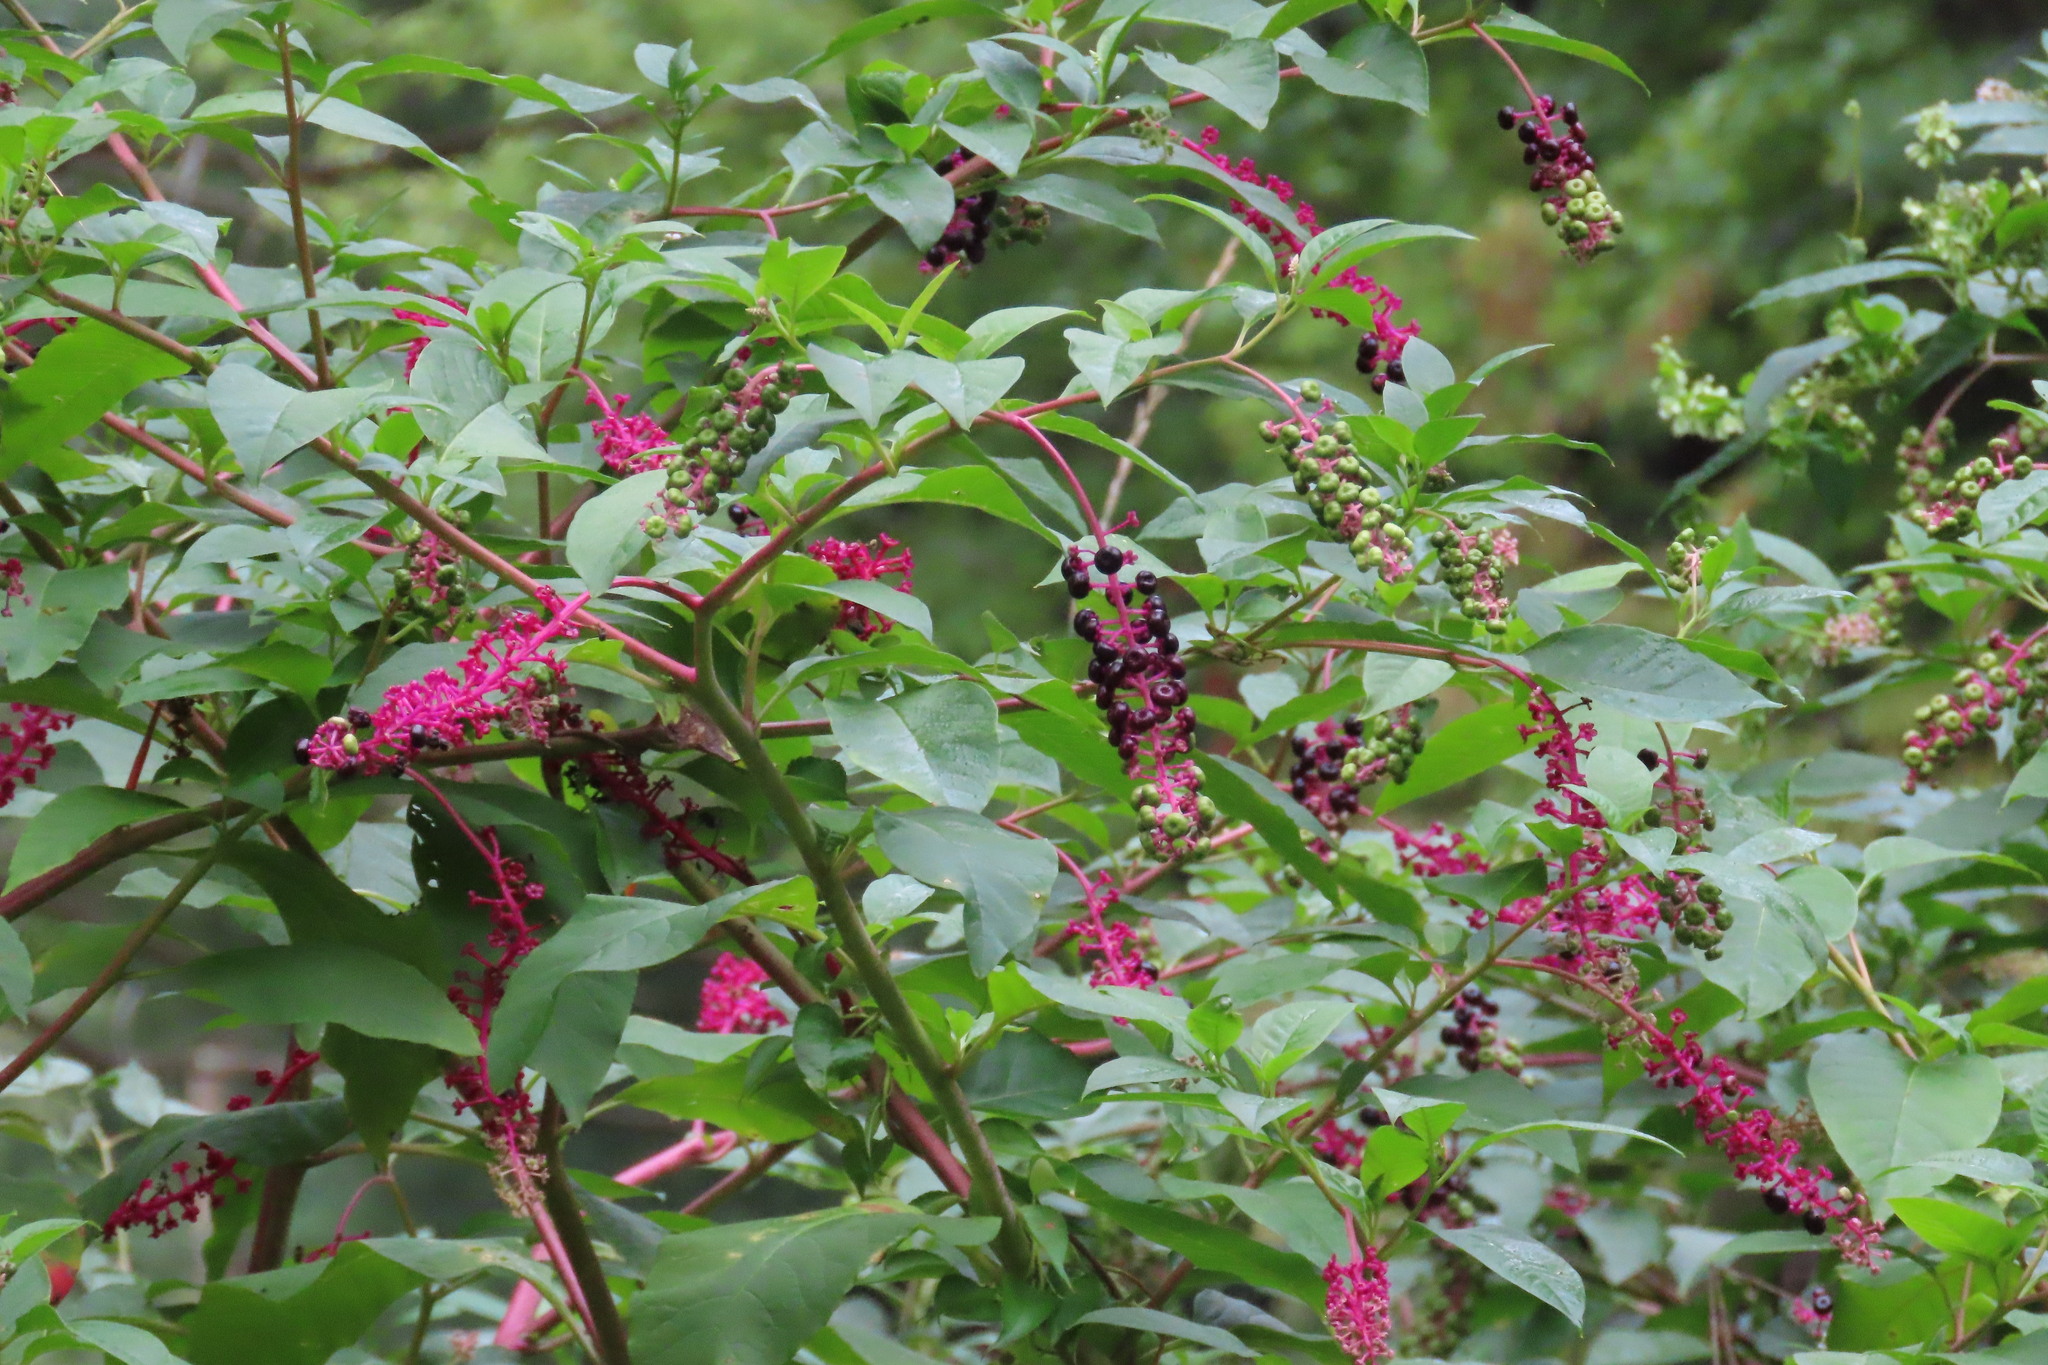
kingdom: Plantae
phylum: Tracheophyta
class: Magnoliopsida
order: Caryophyllales
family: Phytolaccaceae
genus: Phytolacca
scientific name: Phytolacca americana
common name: American pokeweed
